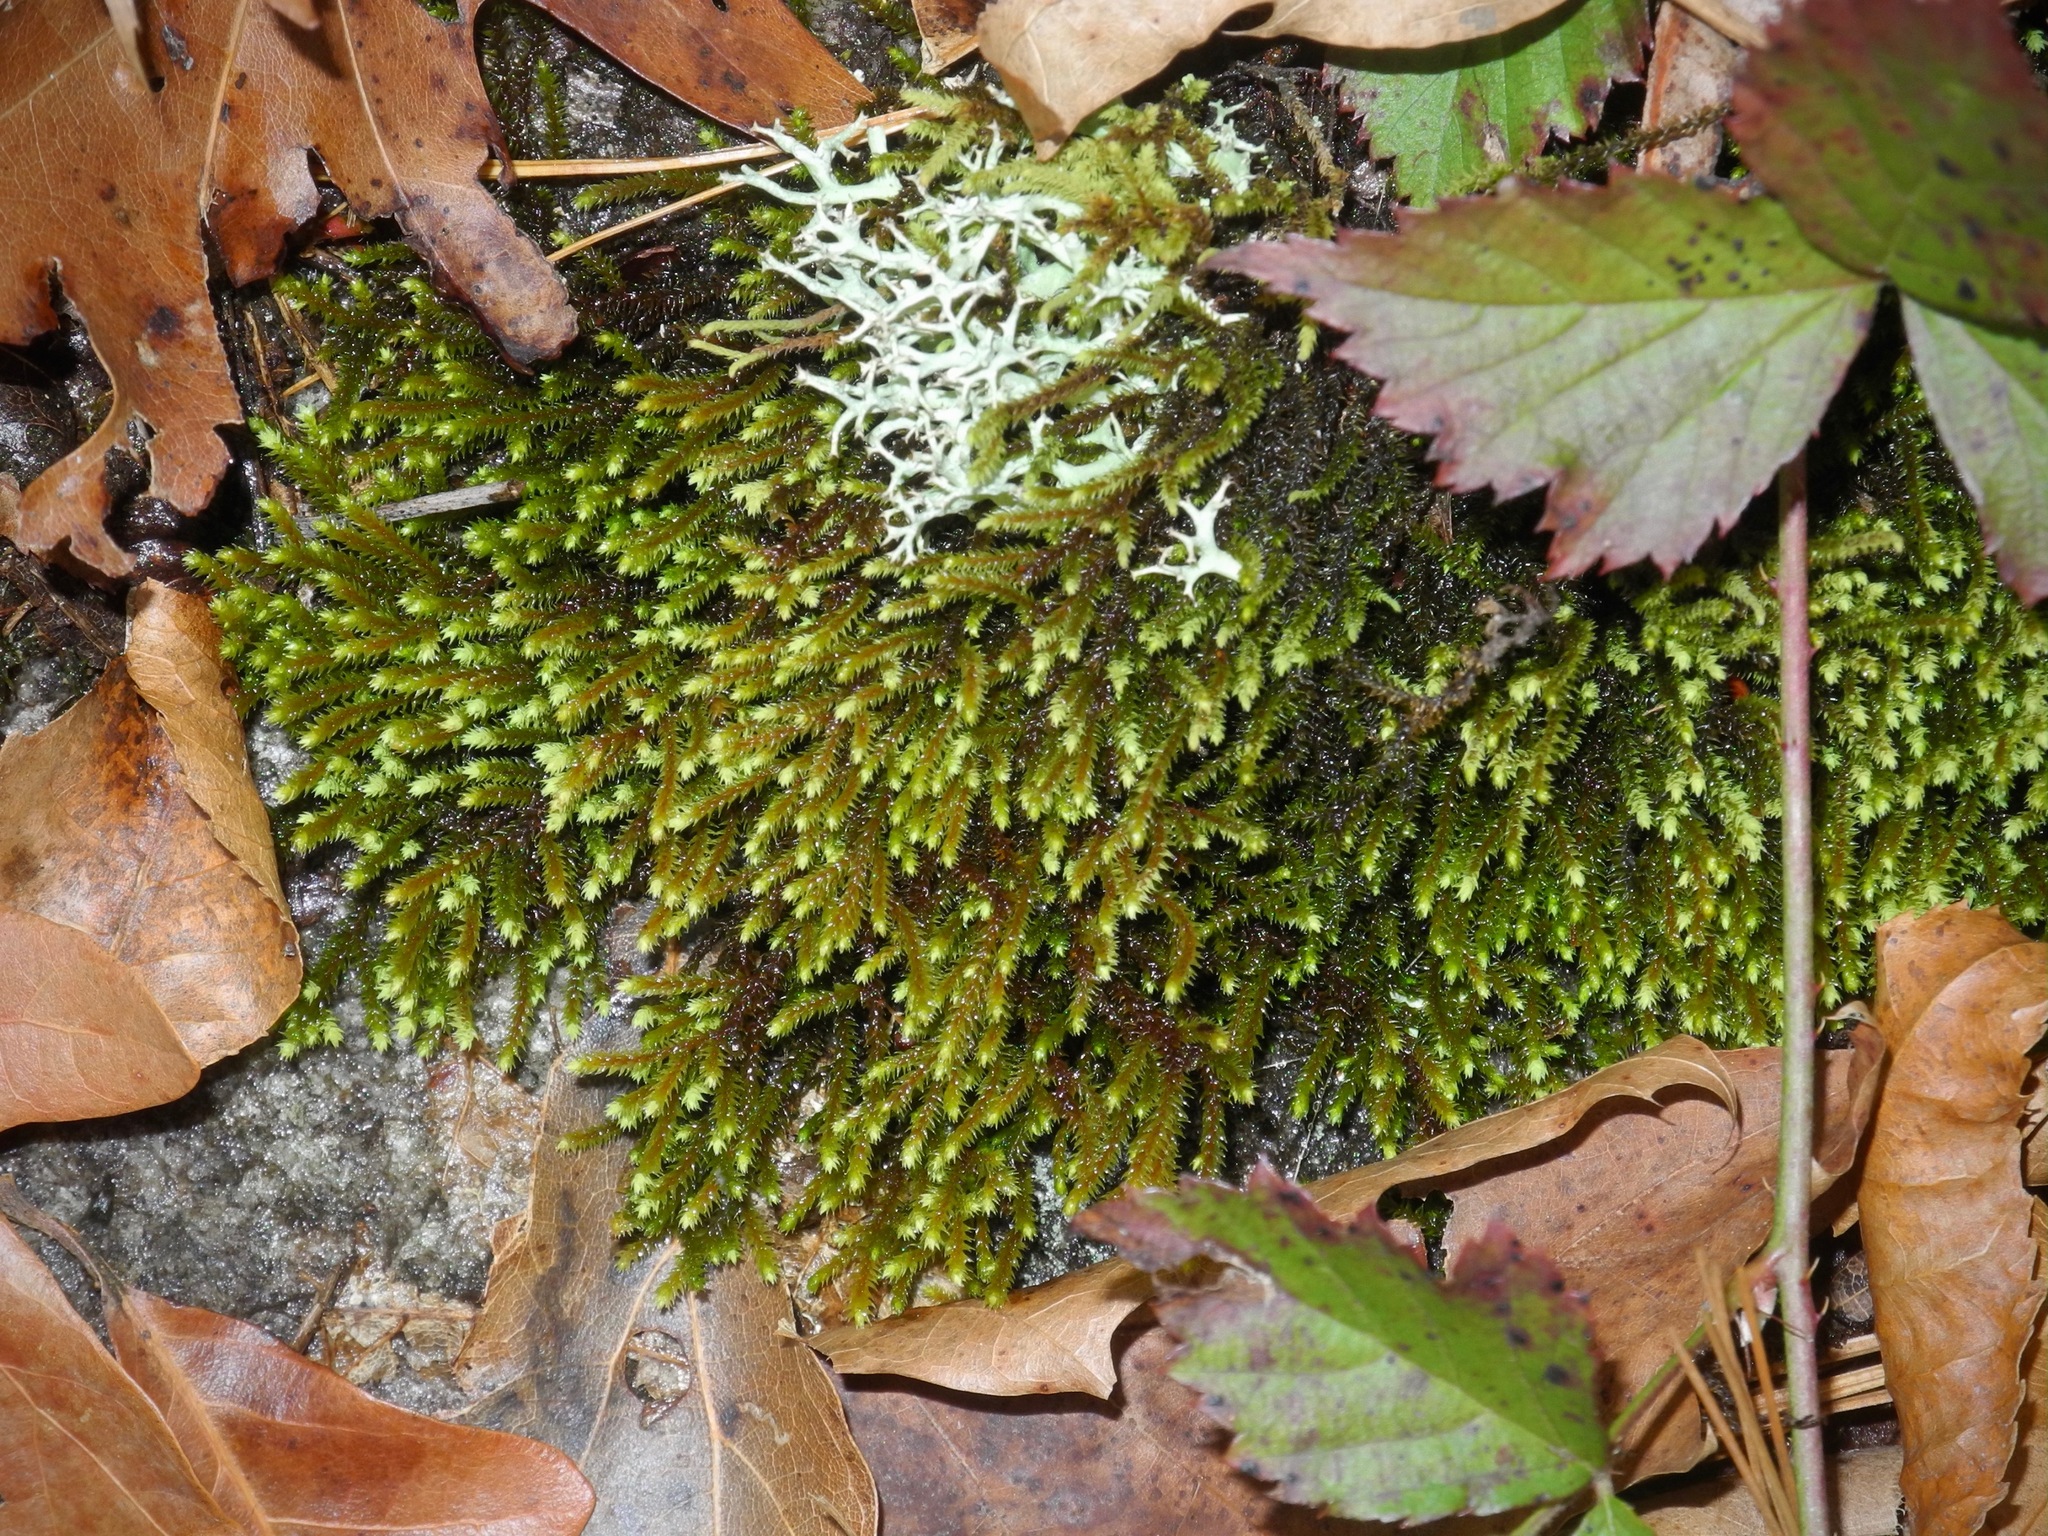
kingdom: Plantae
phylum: Bryophyta
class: Bryopsida
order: Hedwigiales
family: Hedwigiaceae
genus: Hedwigia
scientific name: Hedwigia ciliata
